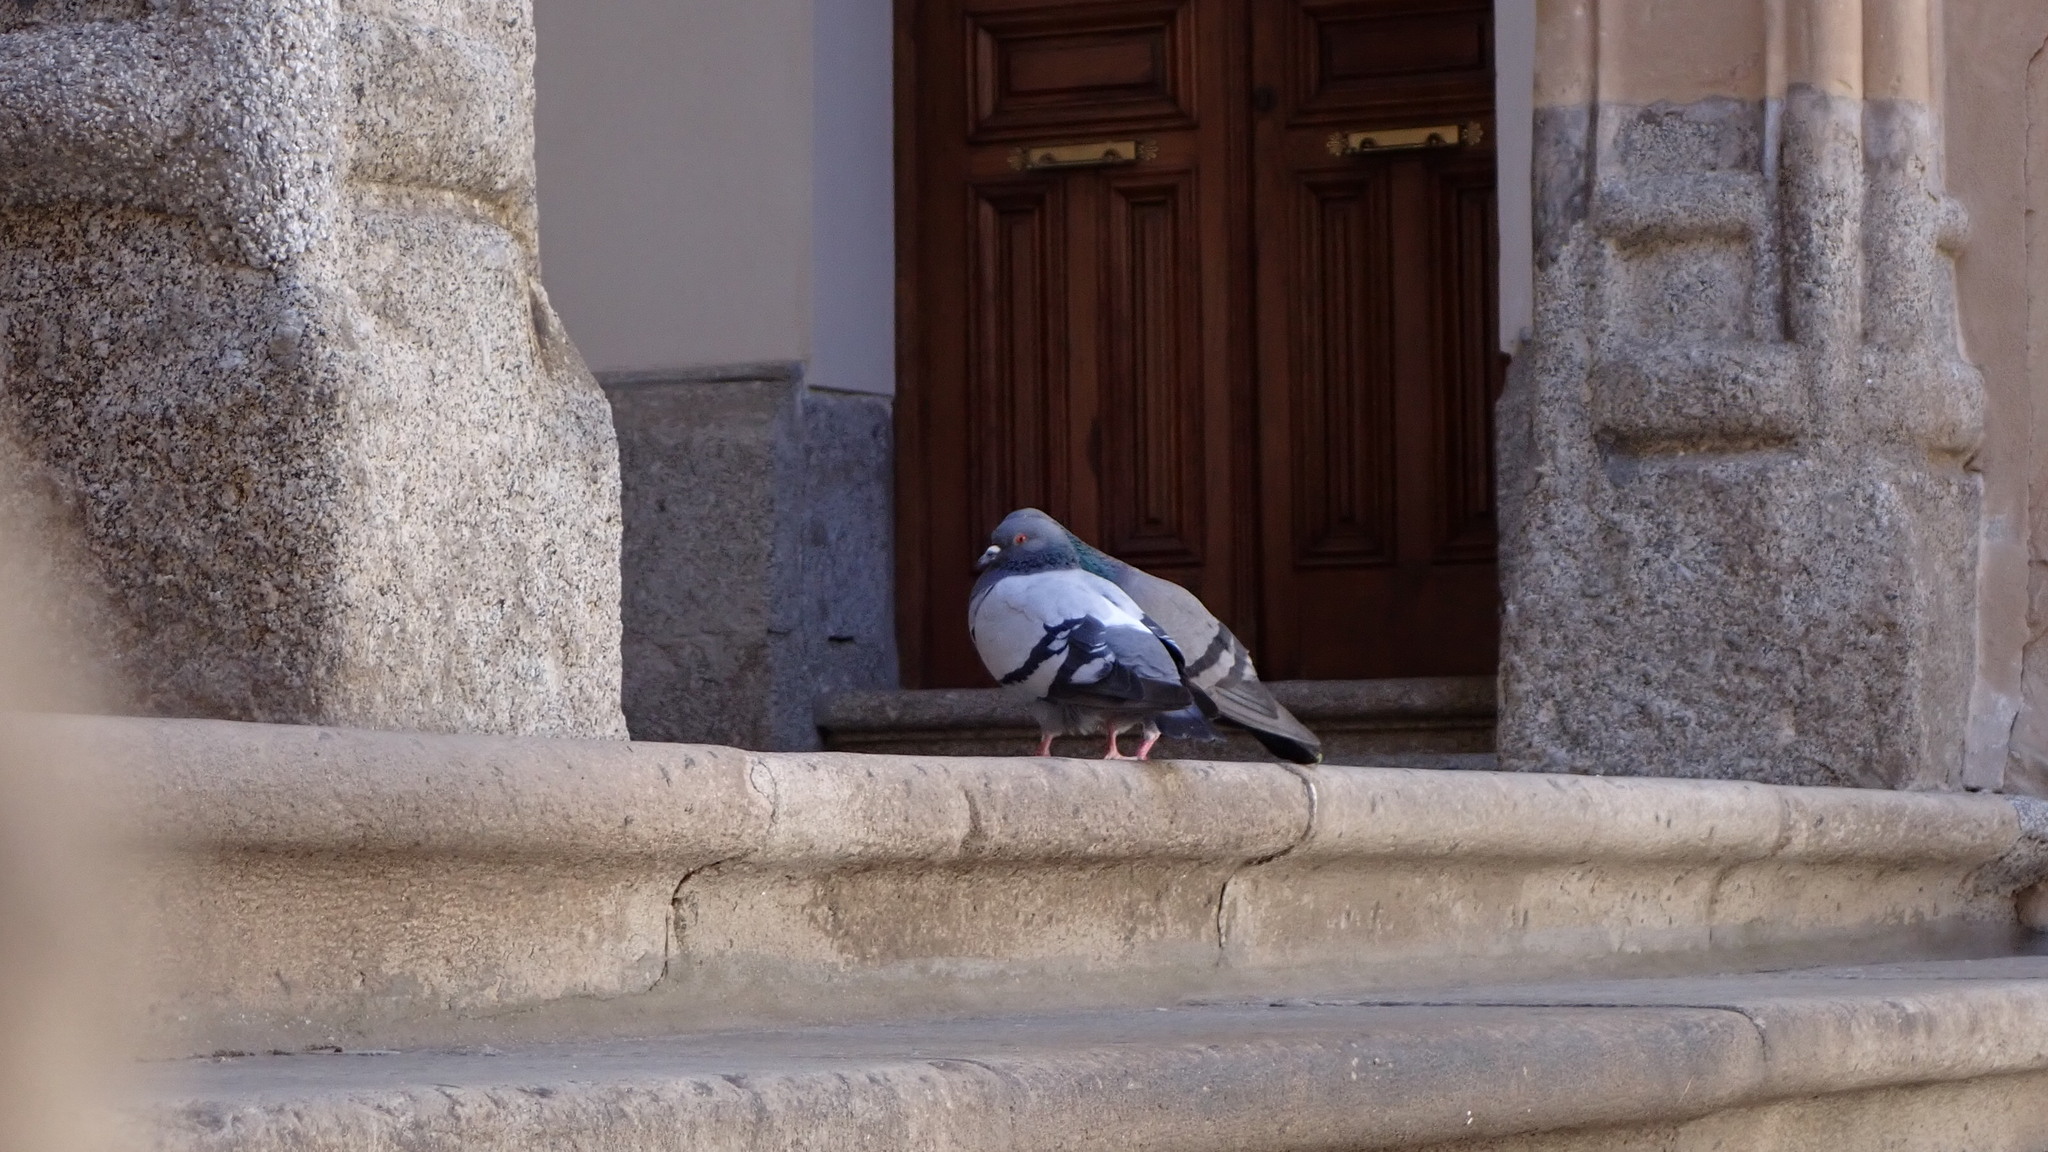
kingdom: Animalia
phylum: Chordata
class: Aves
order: Columbiformes
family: Columbidae
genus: Columba
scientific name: Columba livia
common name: Rock pigeon
